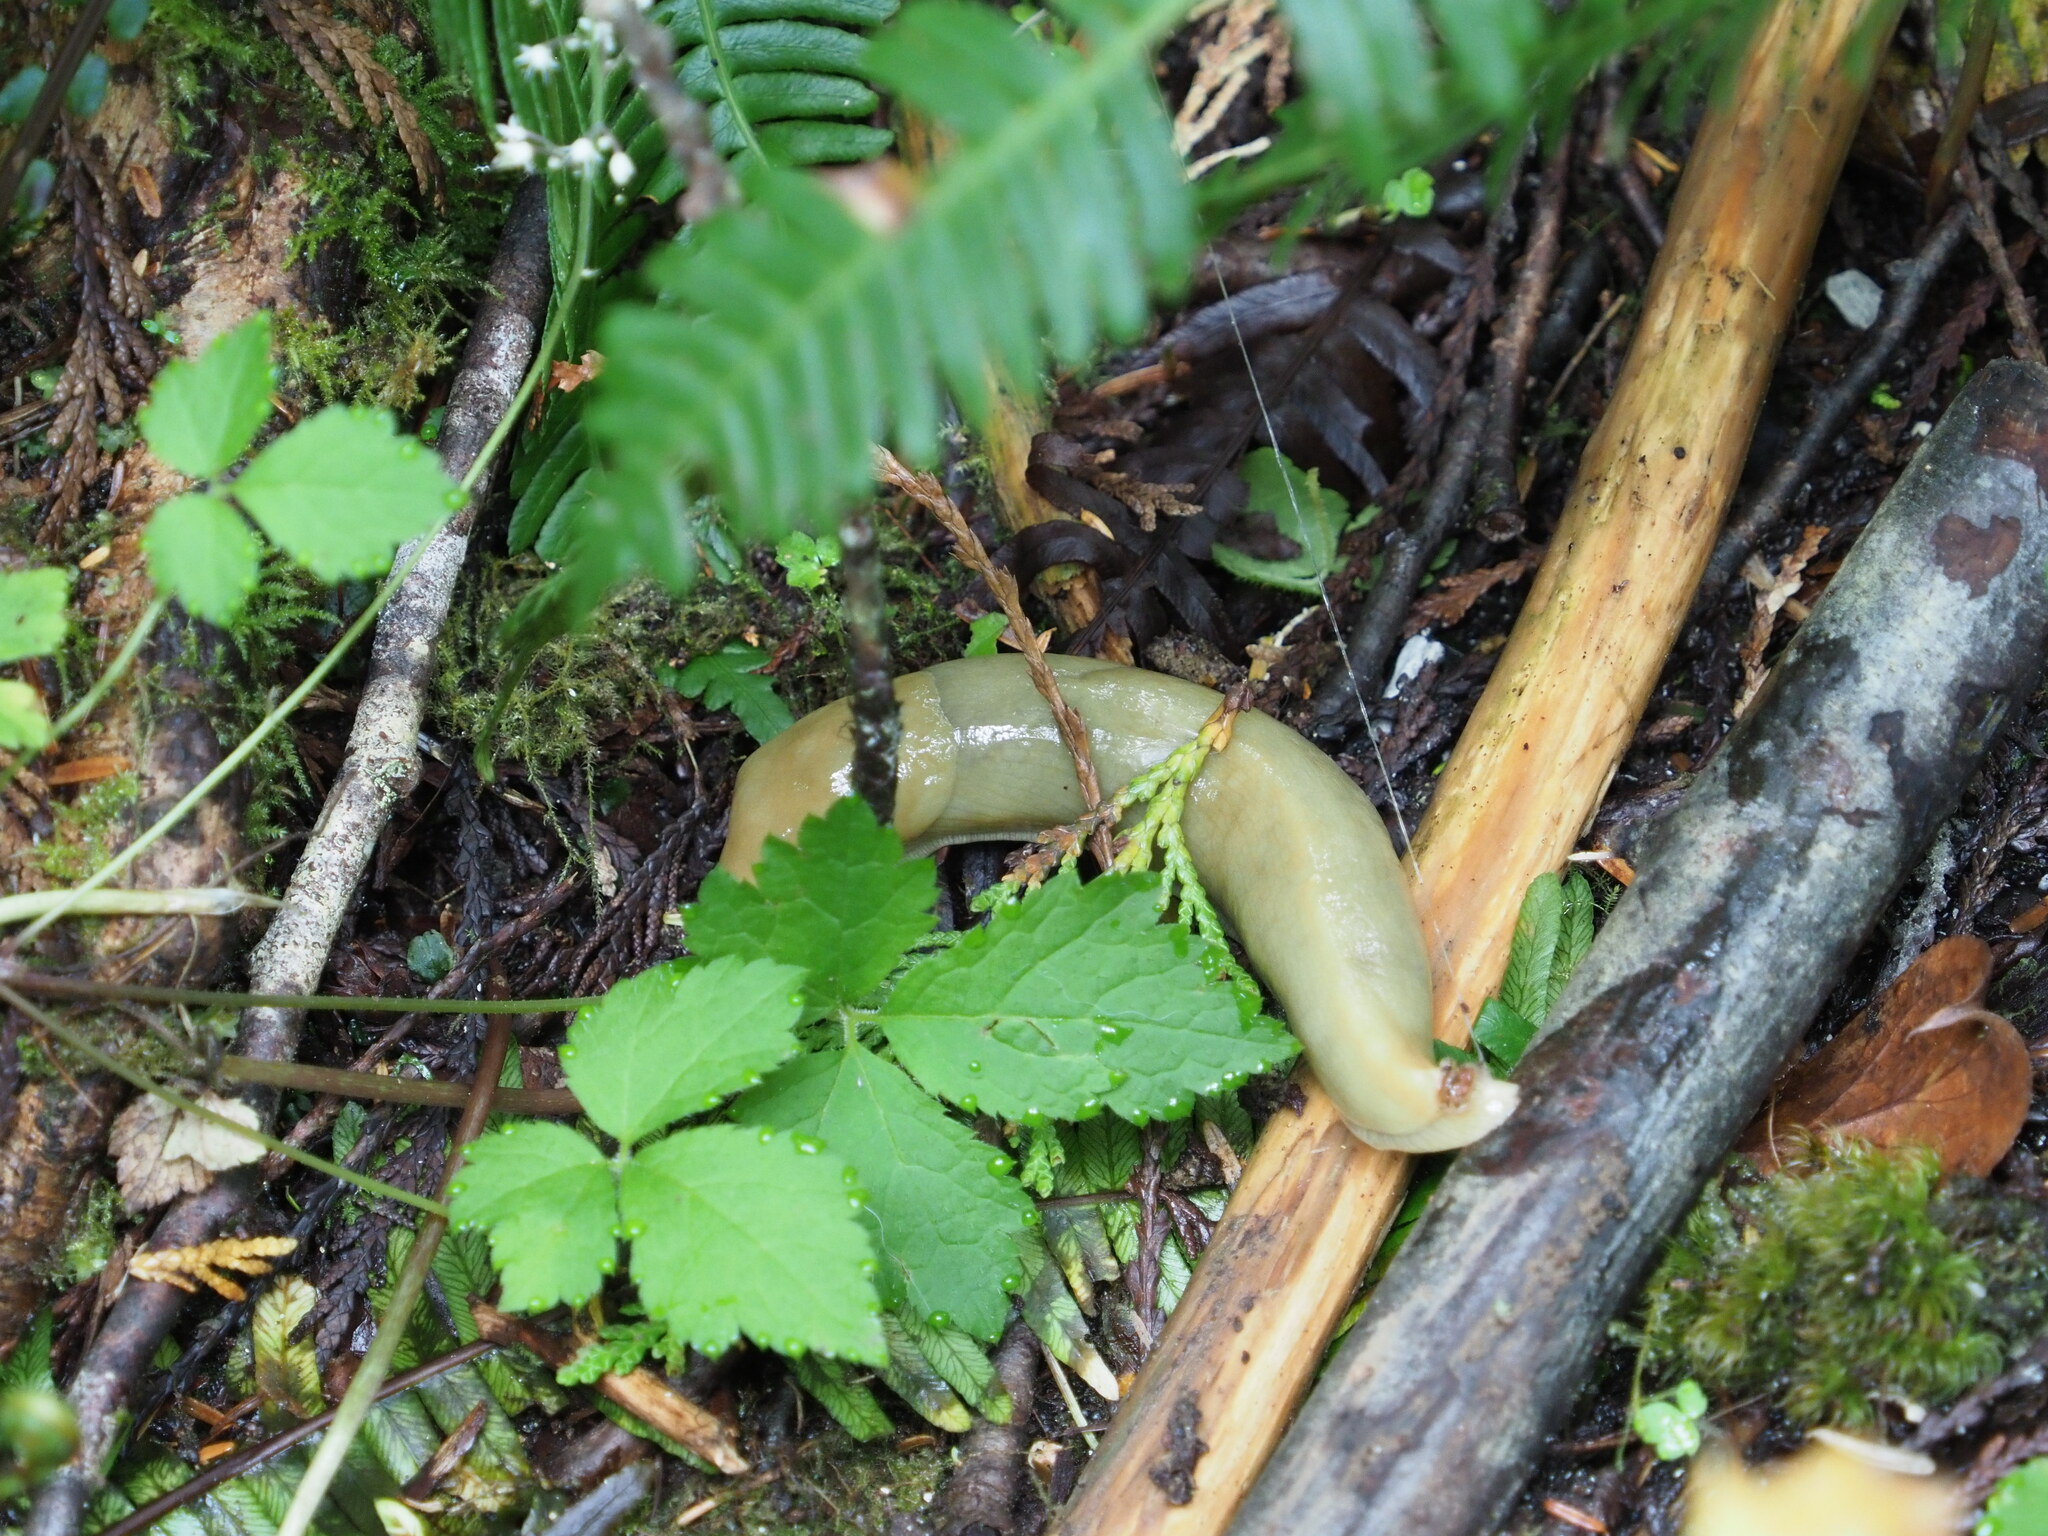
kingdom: Animalia
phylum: Mollusca
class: Gastropoda
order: Stylommatophora
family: Ariolimacidae
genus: Ariolimax
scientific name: Ariolimax columbianus
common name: Pacific banana slug
